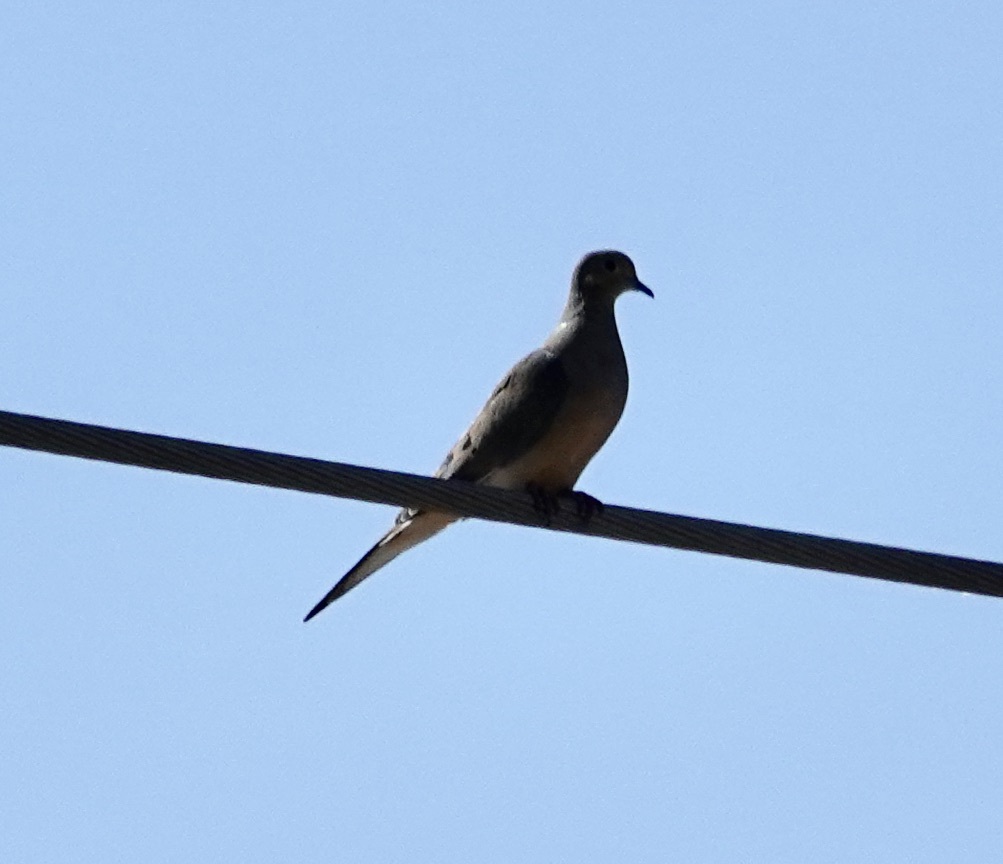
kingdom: Animalia
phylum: Chordata
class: Aves
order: Columbiformes
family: Columbidae
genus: Zenaida
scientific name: Zenaida macroura
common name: Mourning dove
